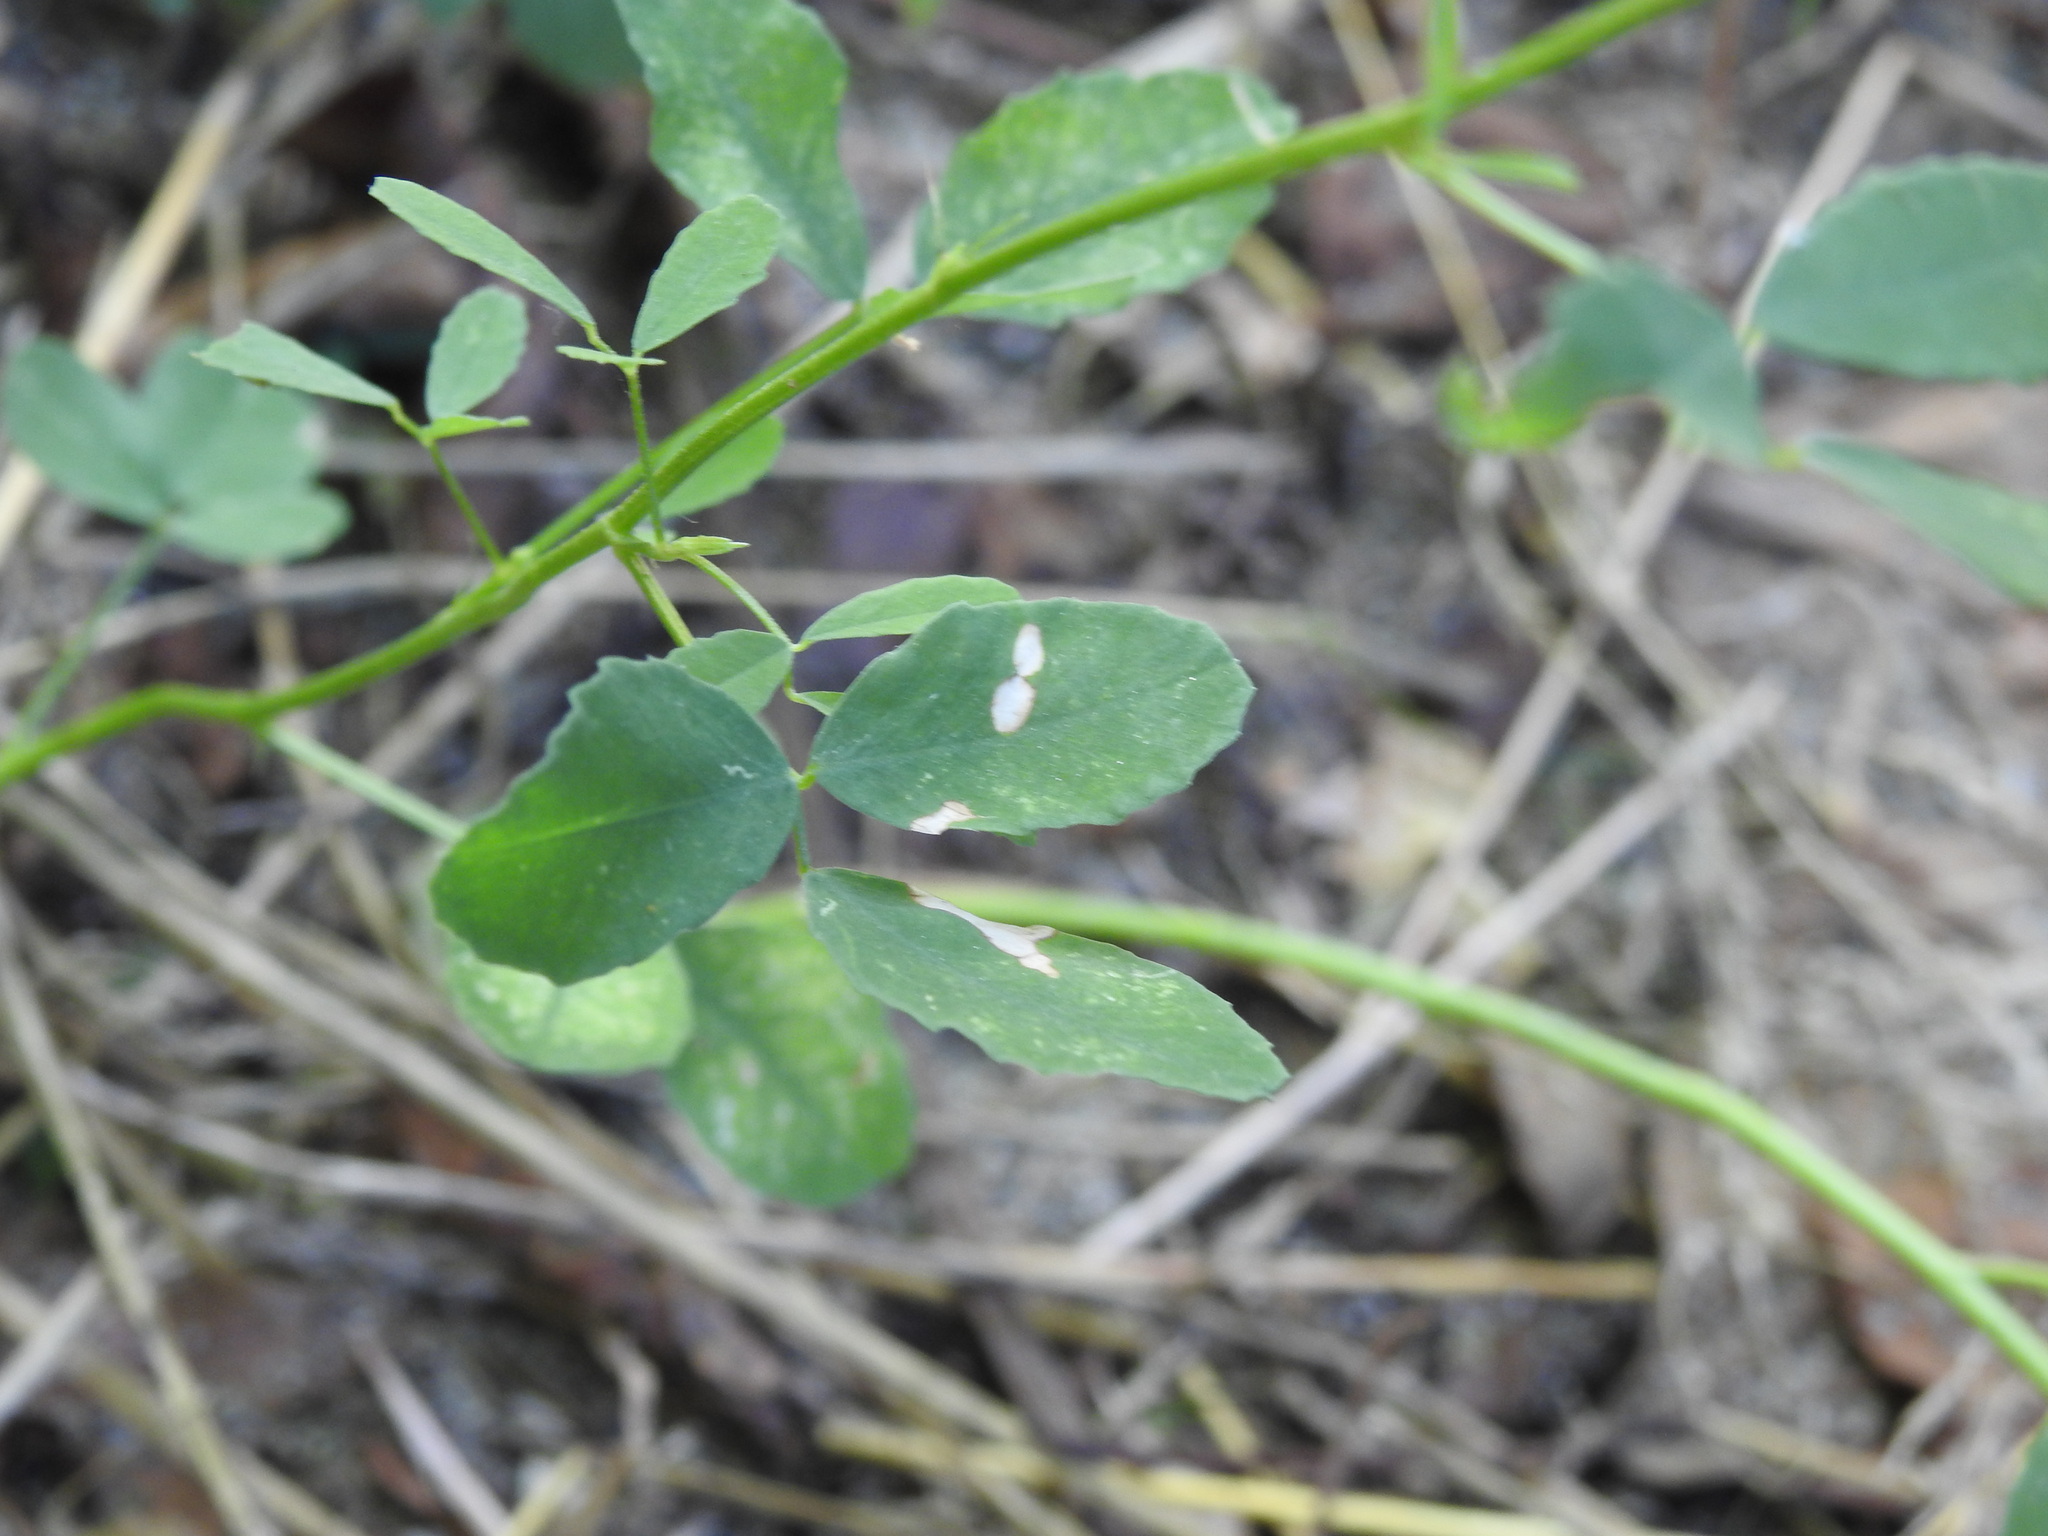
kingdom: Plantae
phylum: Tracheophyta
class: Magnoliopsida
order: Fabales
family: Fabaceae
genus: Melilotus
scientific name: Melilotus albus
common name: White melilot
